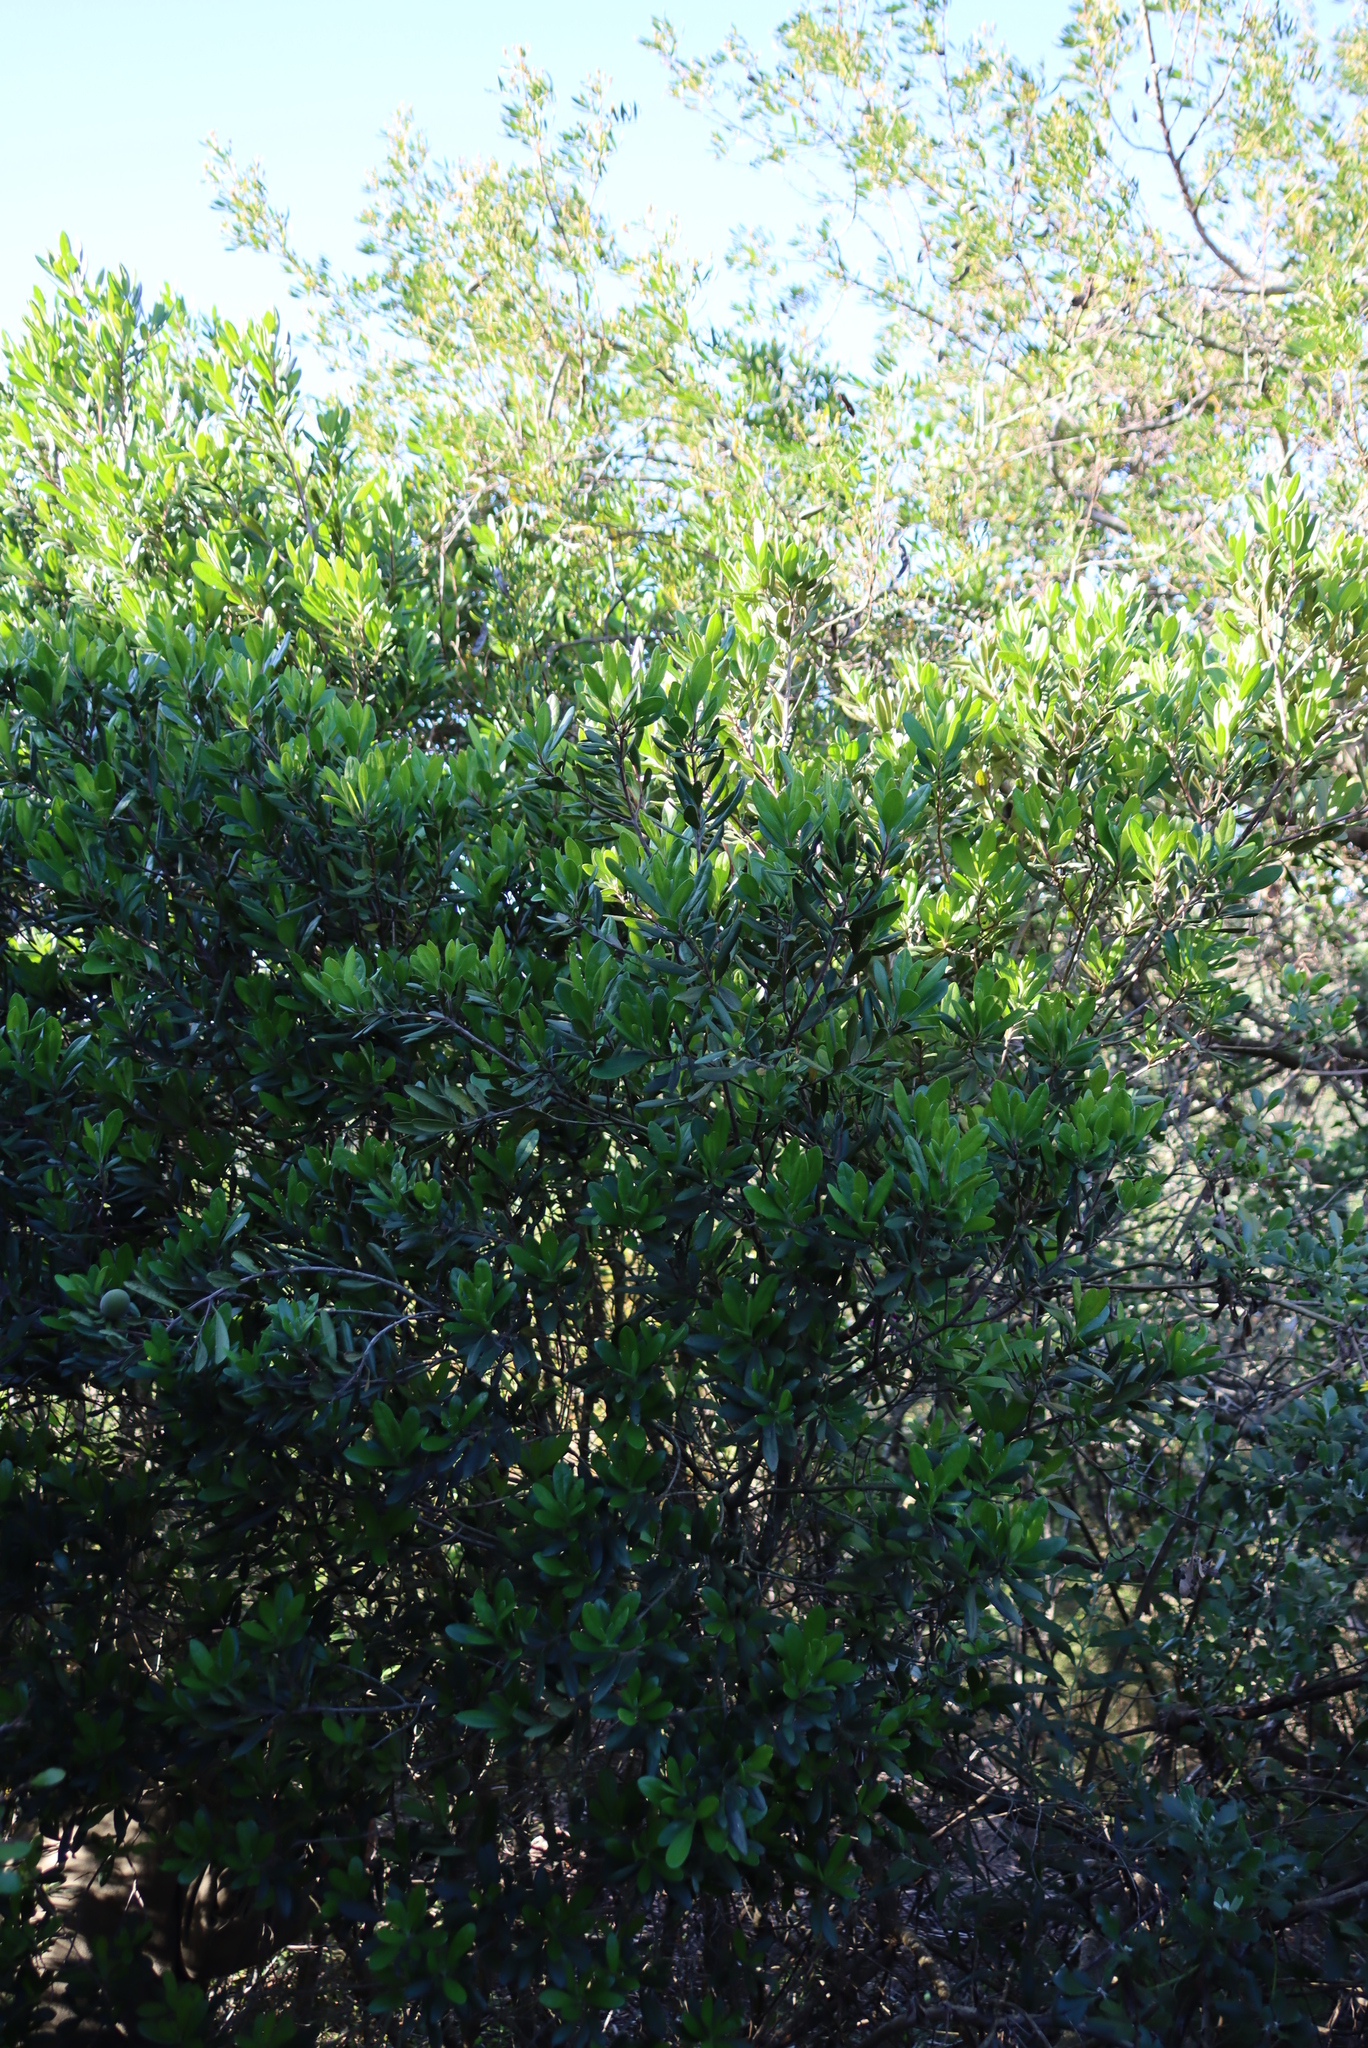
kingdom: Plantae
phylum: Tracheophyta
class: Magnoliopsida
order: Ericales
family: Ebenaceae
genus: Diospyros
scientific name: Diospyros dichrophylla
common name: Common star-apple
